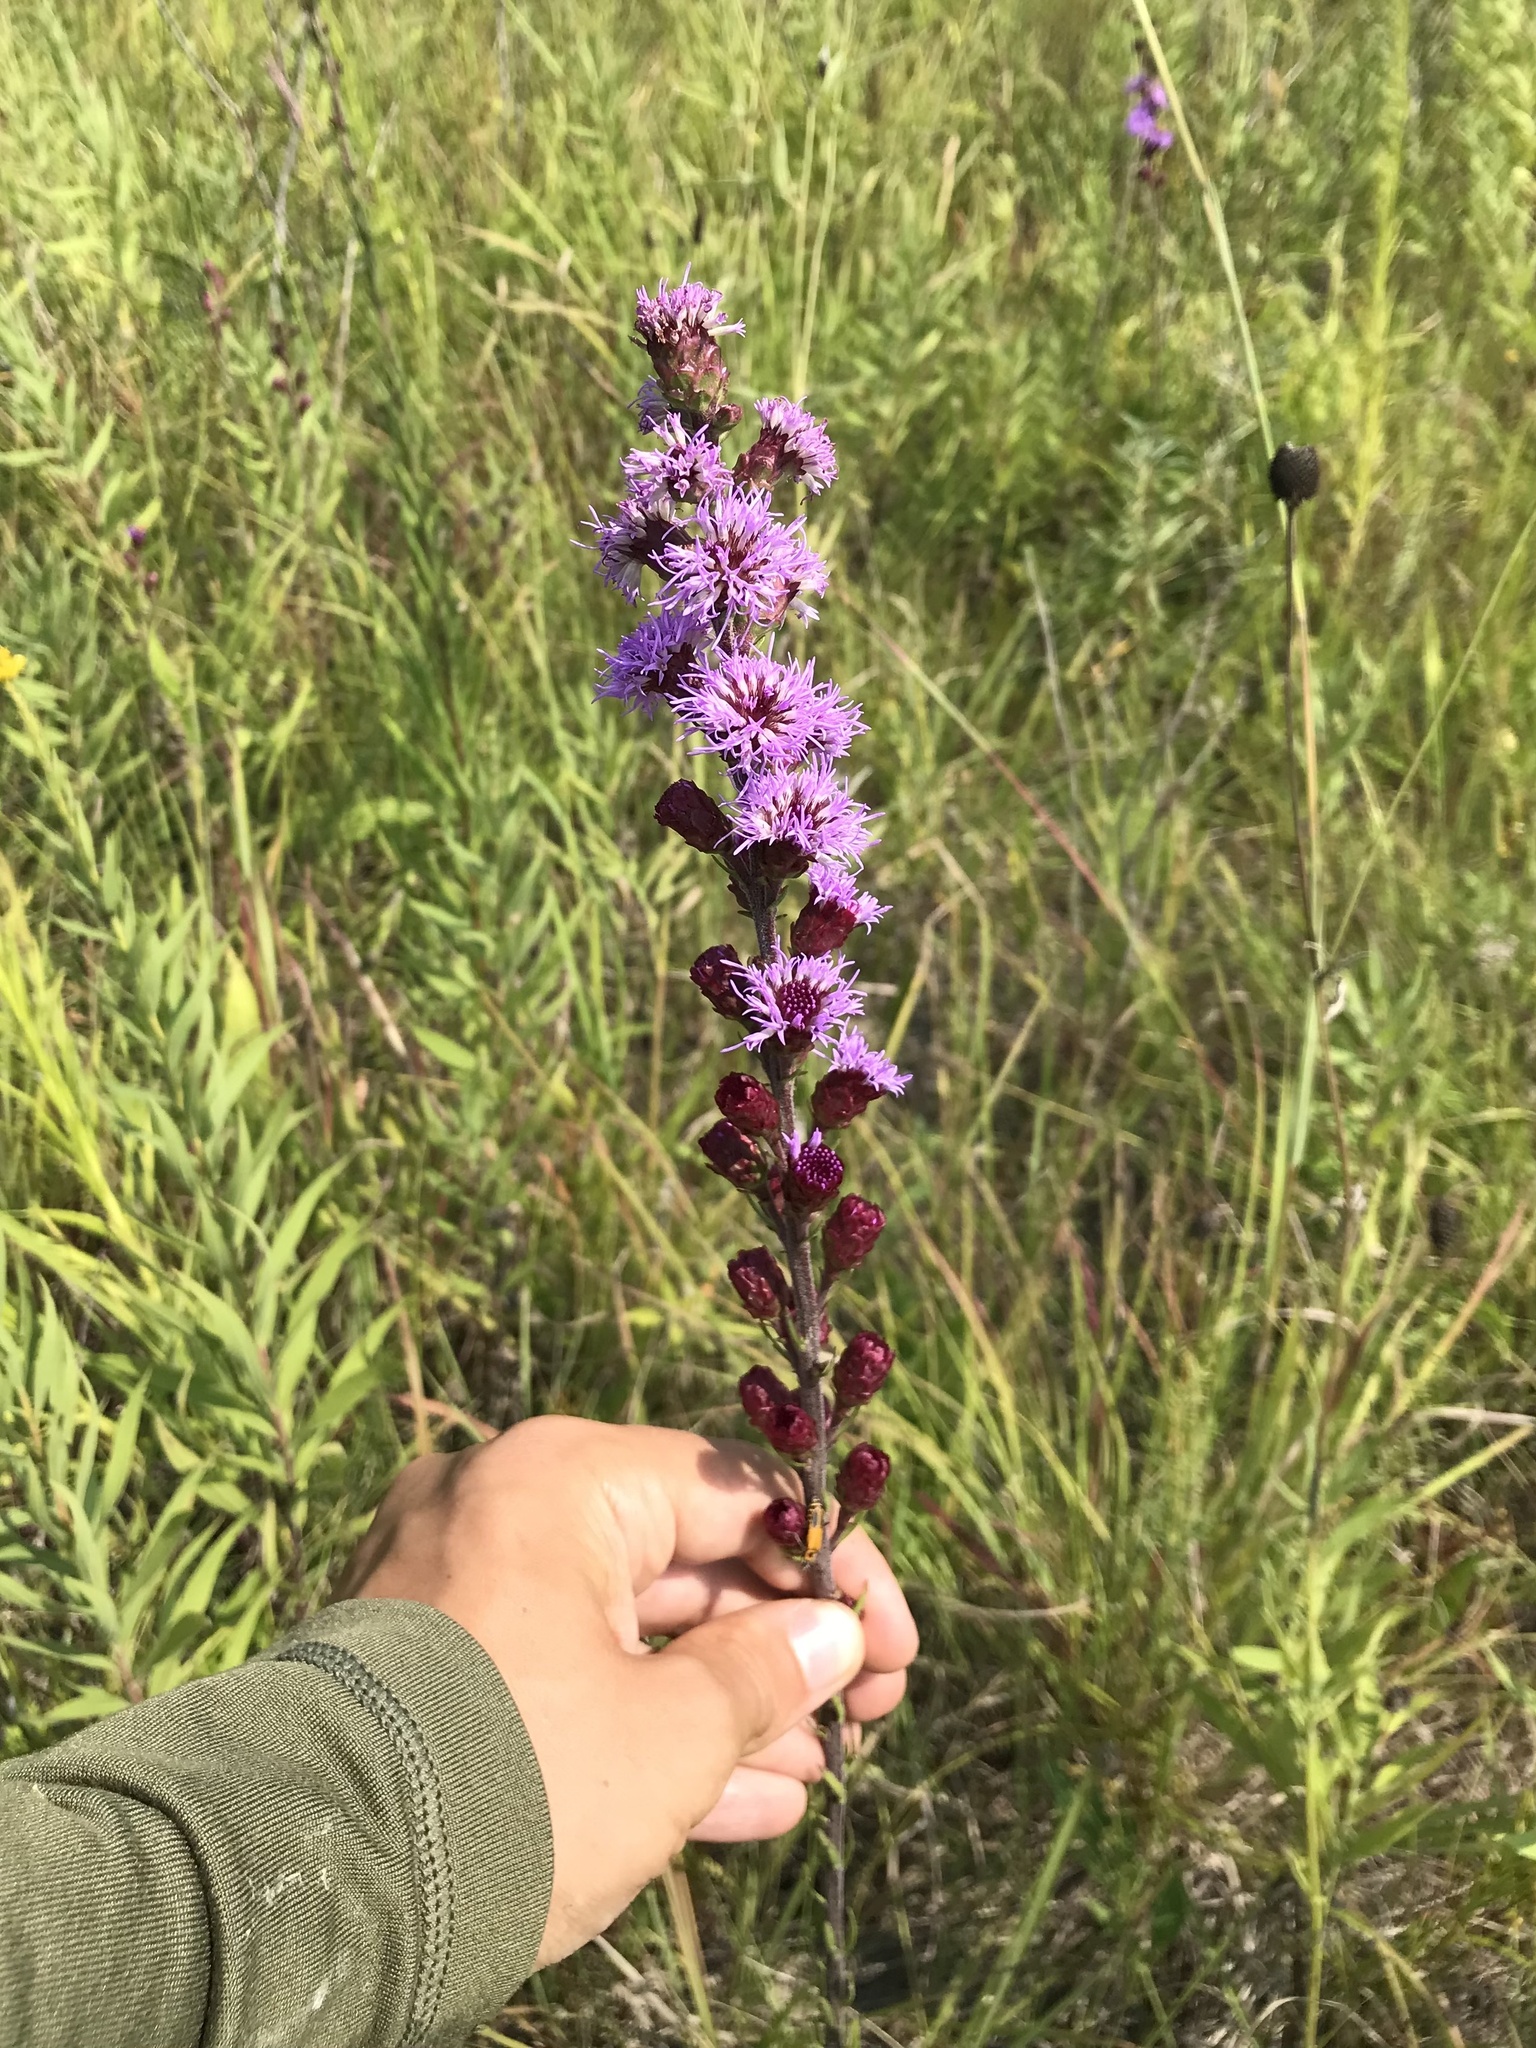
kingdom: Plantae
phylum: Tracheophyta
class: Magnoliopsida
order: Asterales
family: Asteraceae
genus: Liatris
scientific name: Liatris ligulistylis
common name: Northern plains gayfeather
